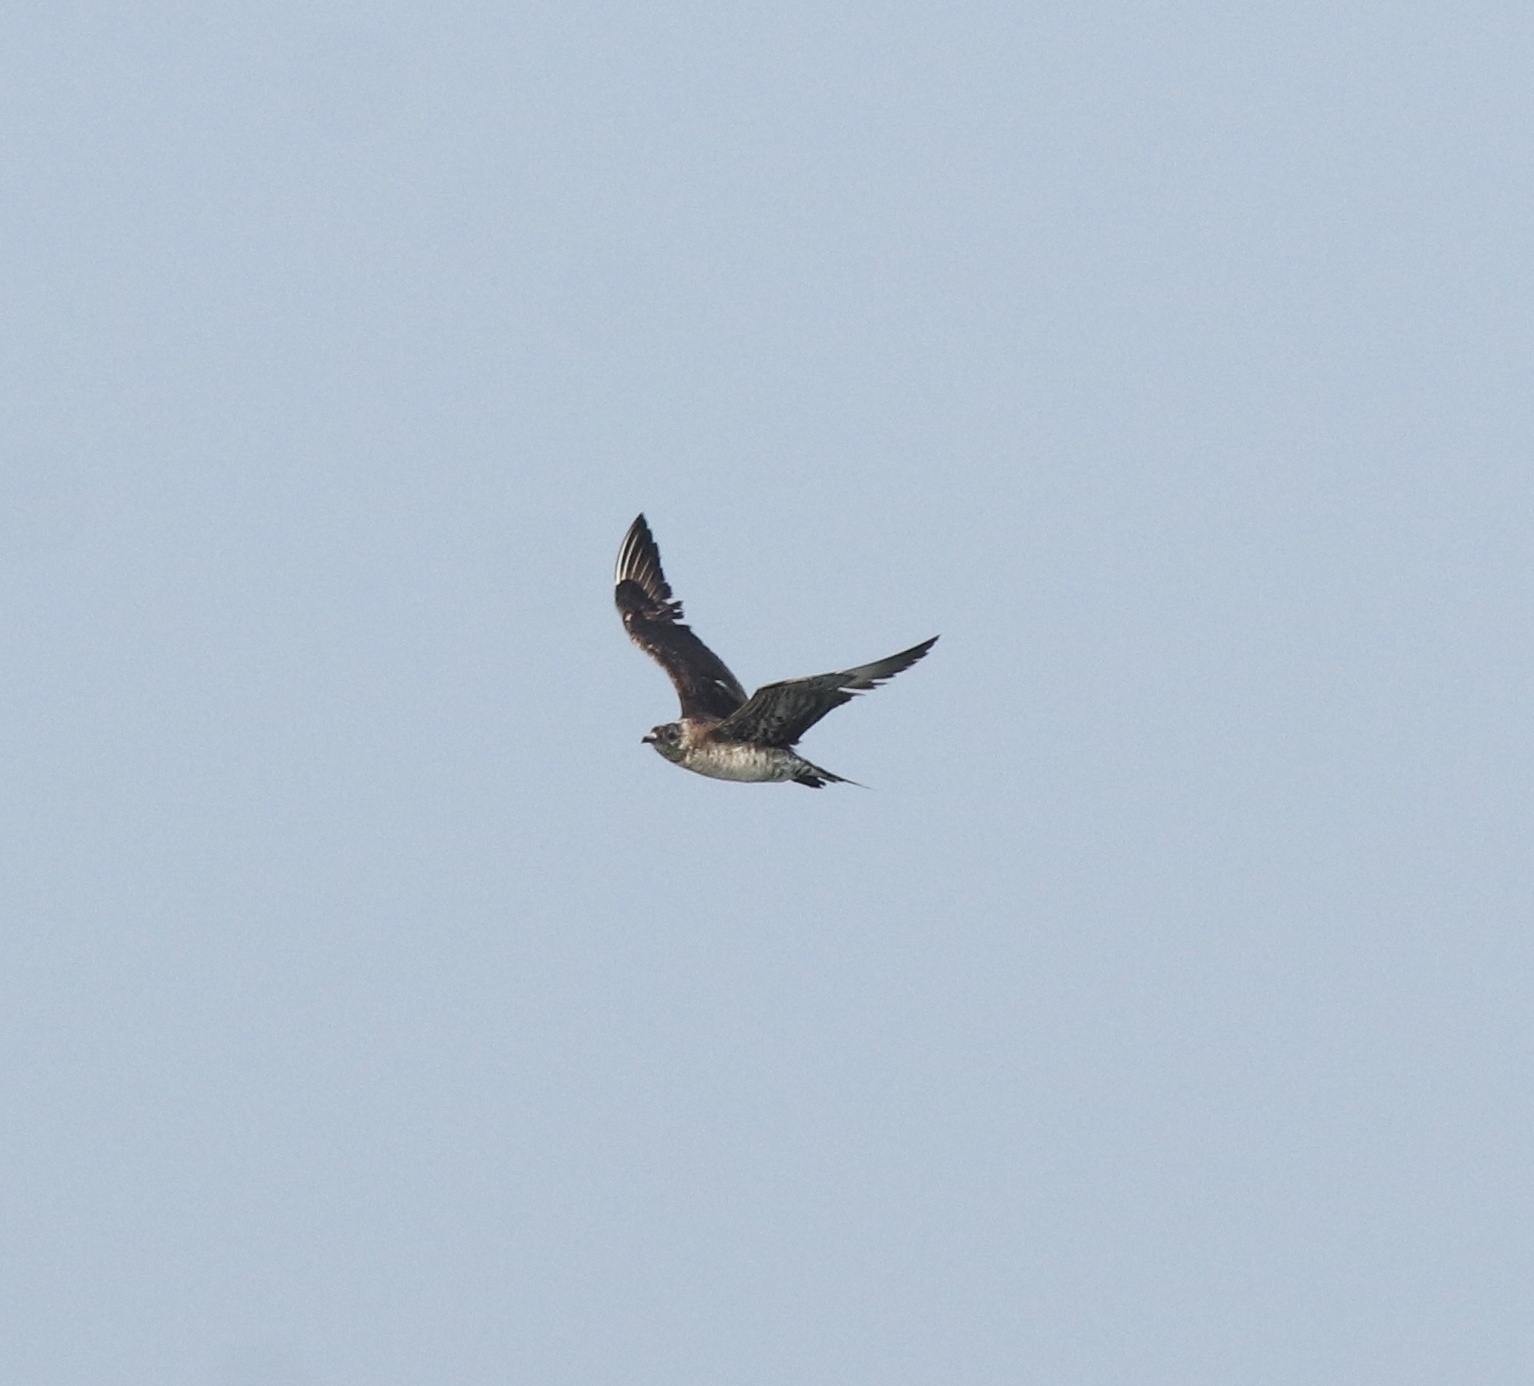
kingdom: Animalia
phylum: Chordata
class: Aves
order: Charadriiformes
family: Stercorariidae
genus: Stercorarius
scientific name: Stercorarius parasiticus
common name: Parasitic jaeger
